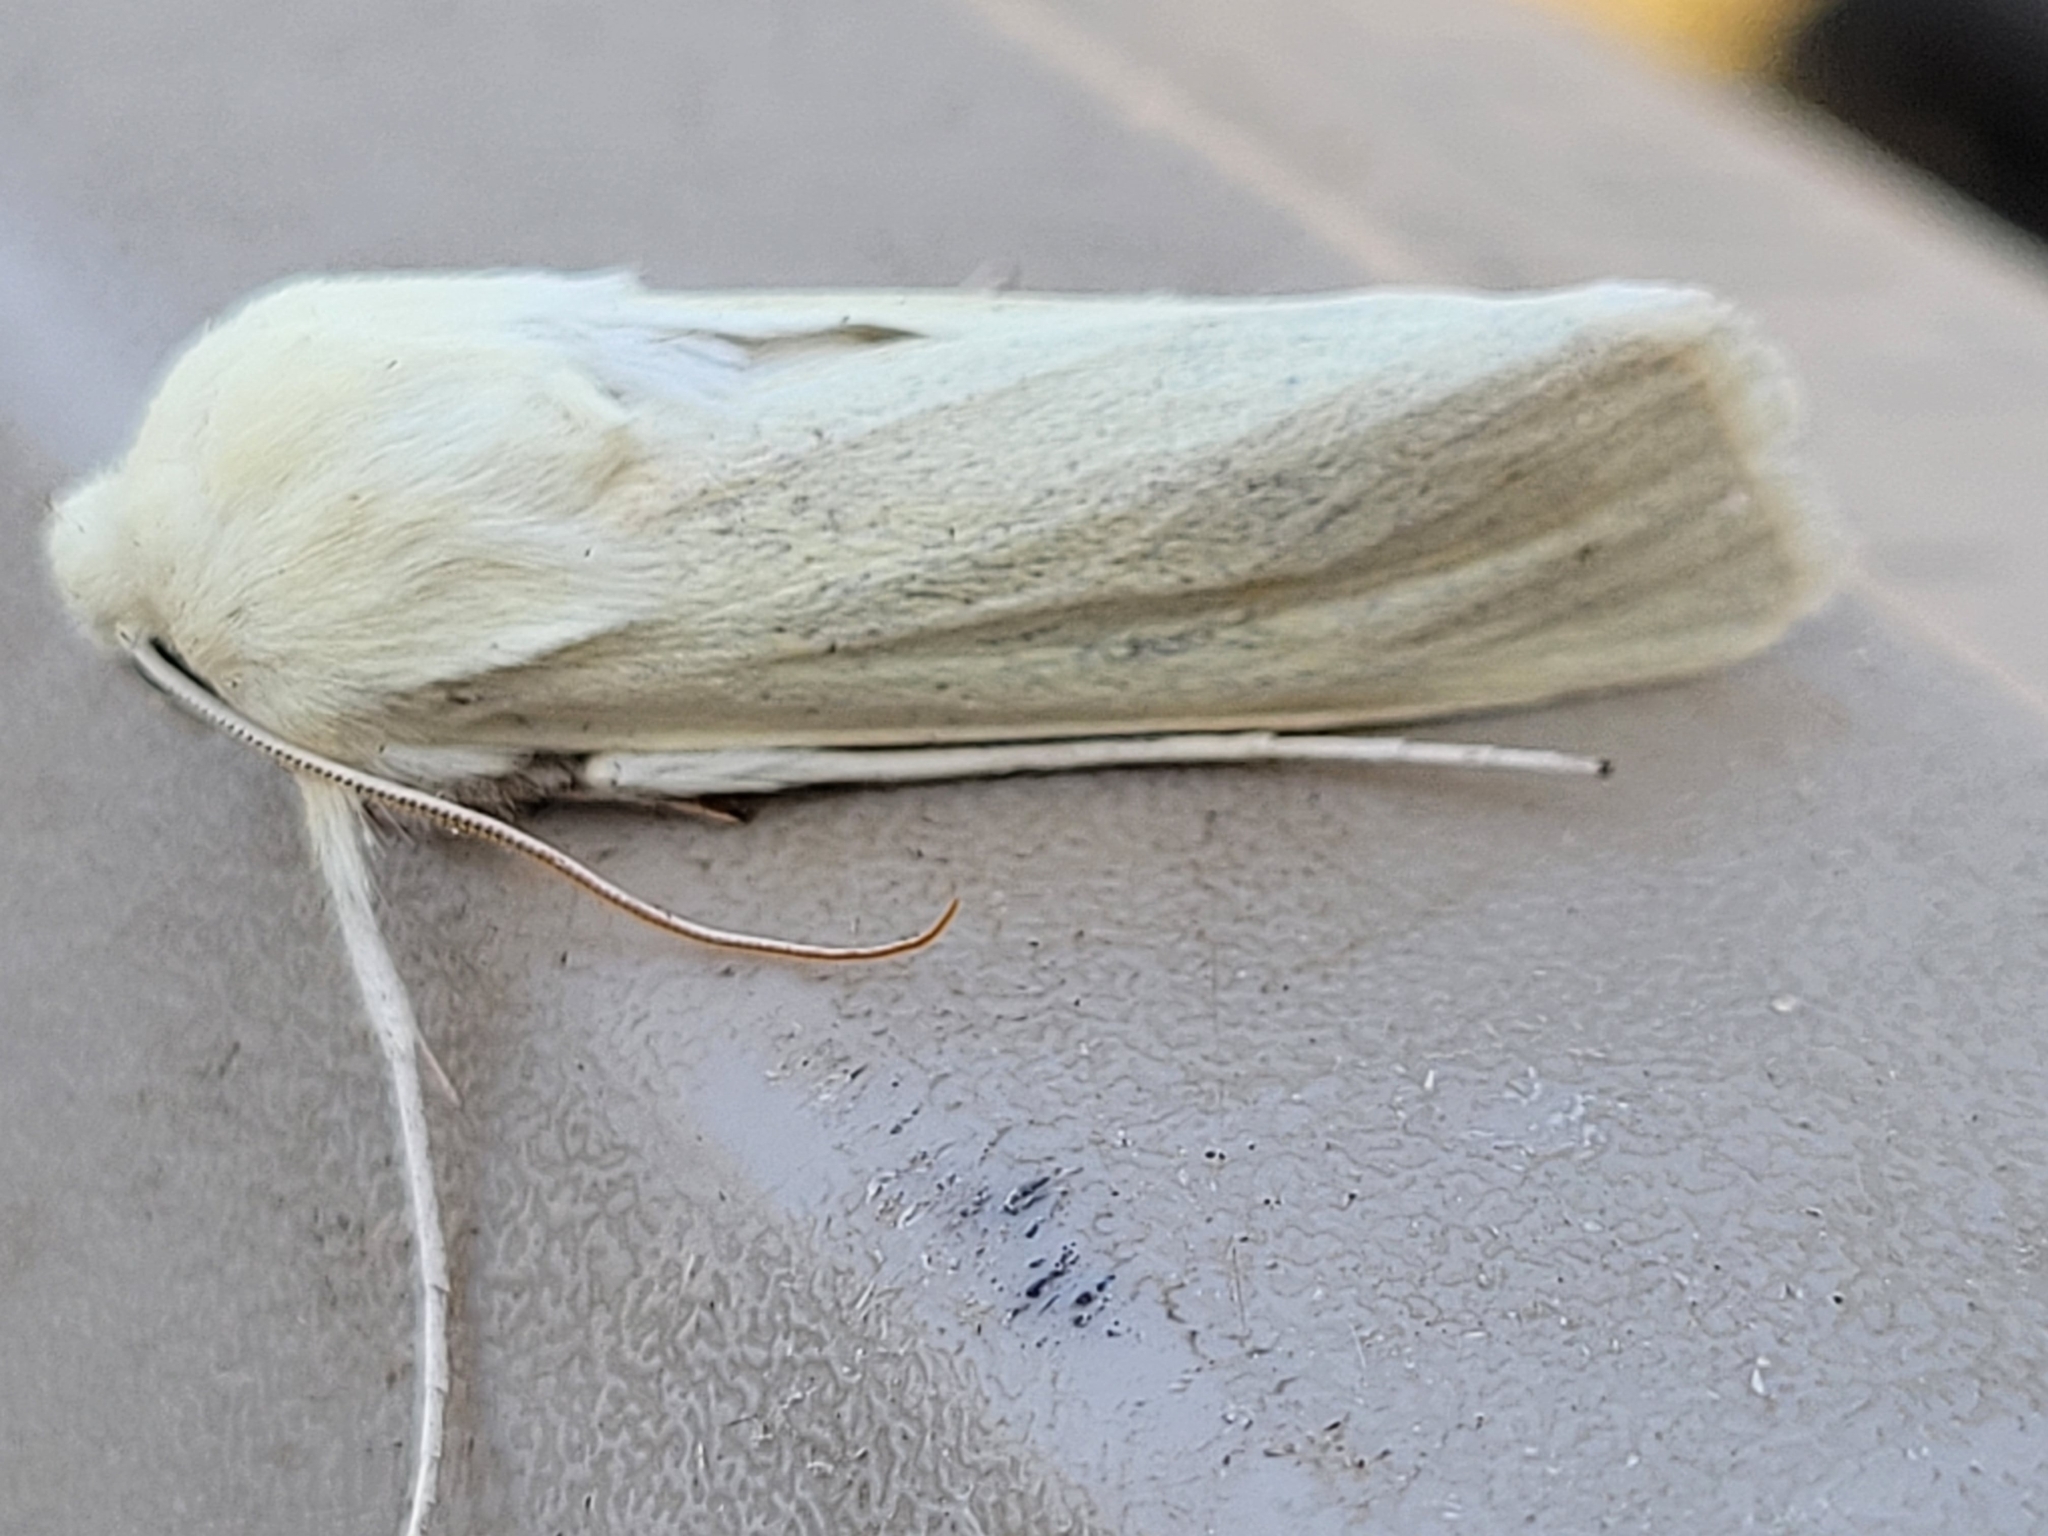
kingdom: Animalia
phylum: Arthropoda
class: Insecta
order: Lepidoptera
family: Noctuidae
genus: Copablepharon
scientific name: Copablepharon viridisparsa
